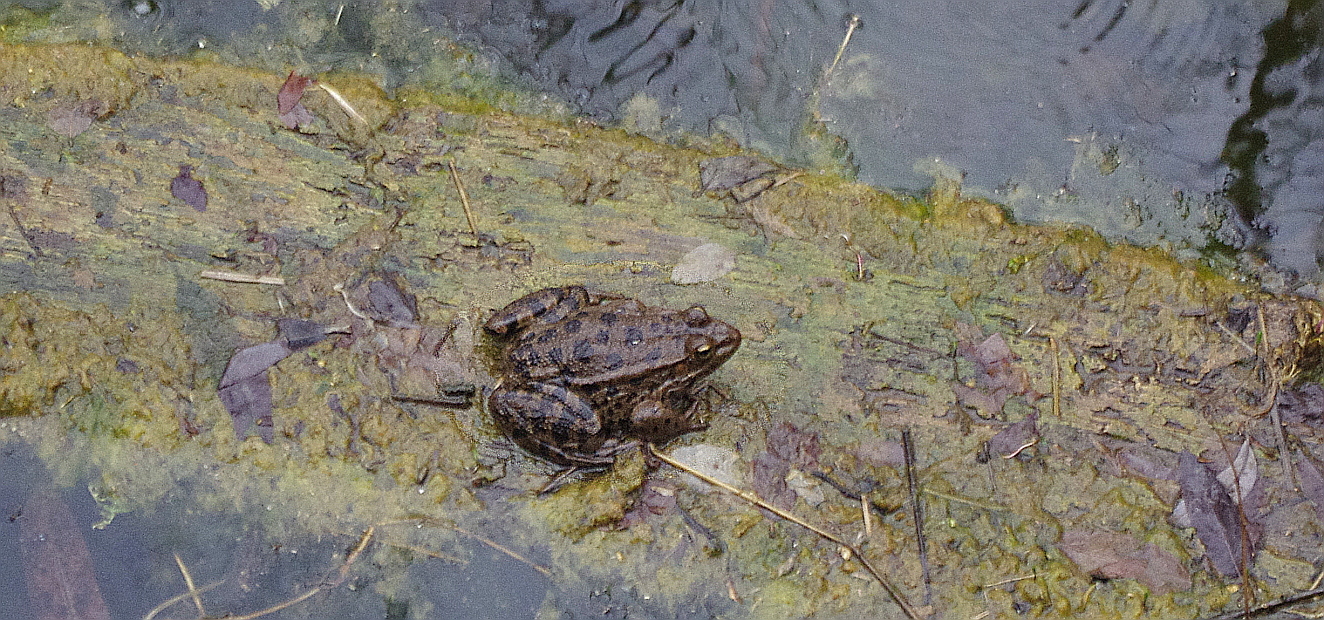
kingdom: Animalia
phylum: Chordata
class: Amphibia
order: Anura
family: Ranidae
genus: Pelophylax
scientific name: Pelophylax ridibundus
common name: Marsh frog
